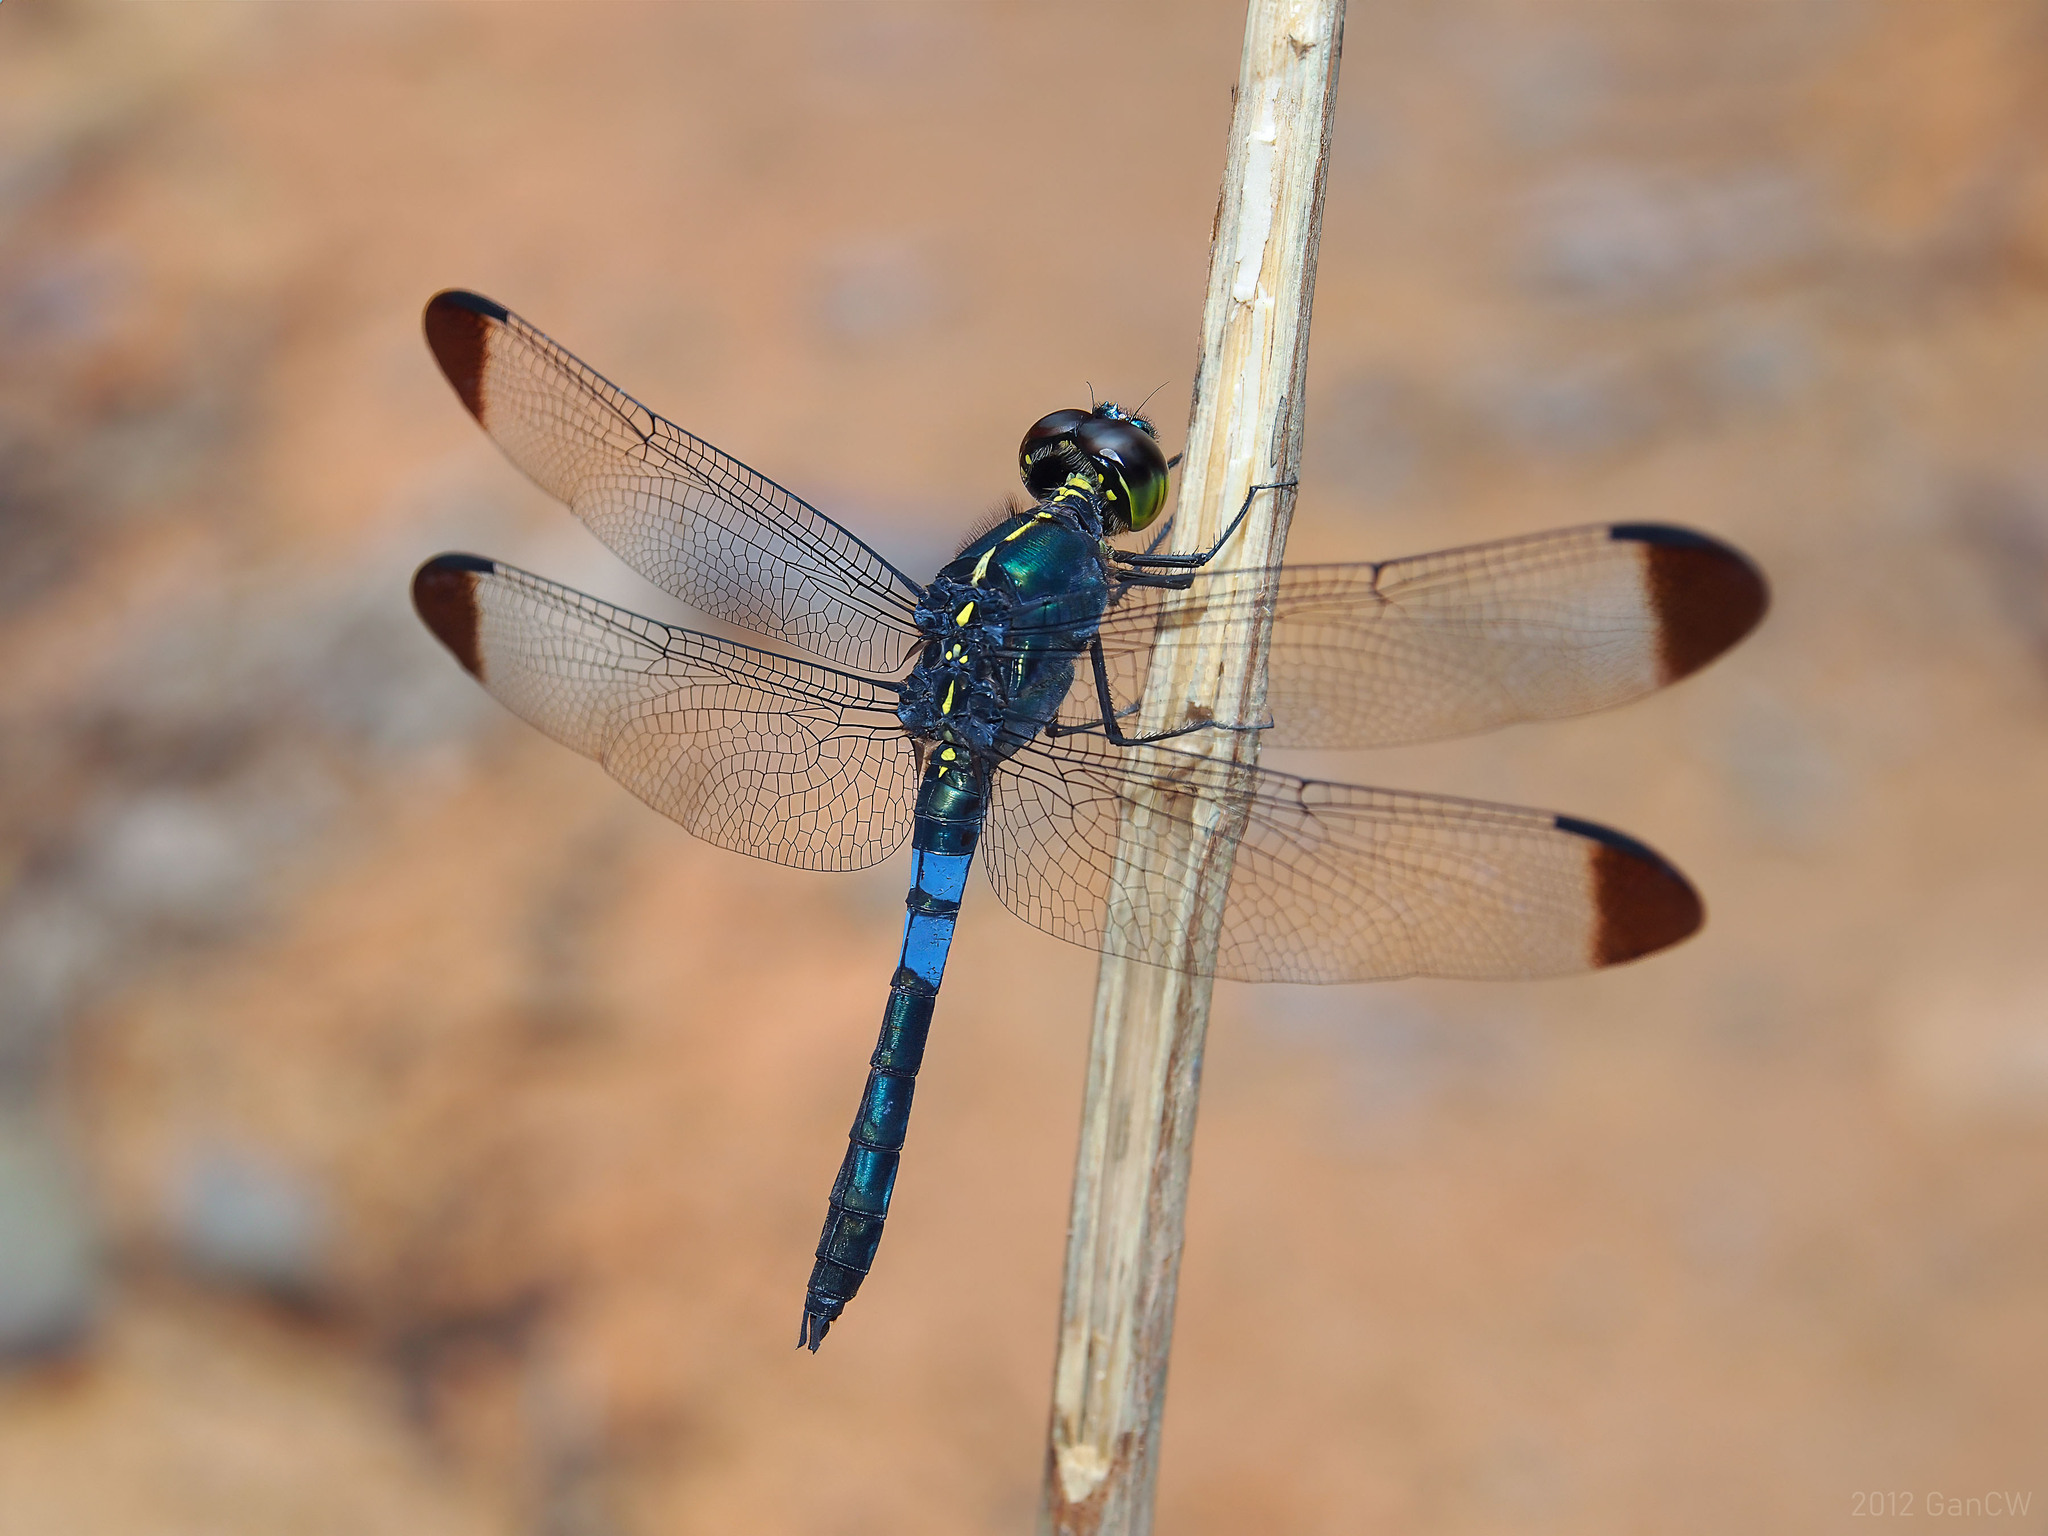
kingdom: Animalia
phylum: Arthropoda
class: Insecta
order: Odonata
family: Libellulidae
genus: Cratilla
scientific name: Cratilla metallica
